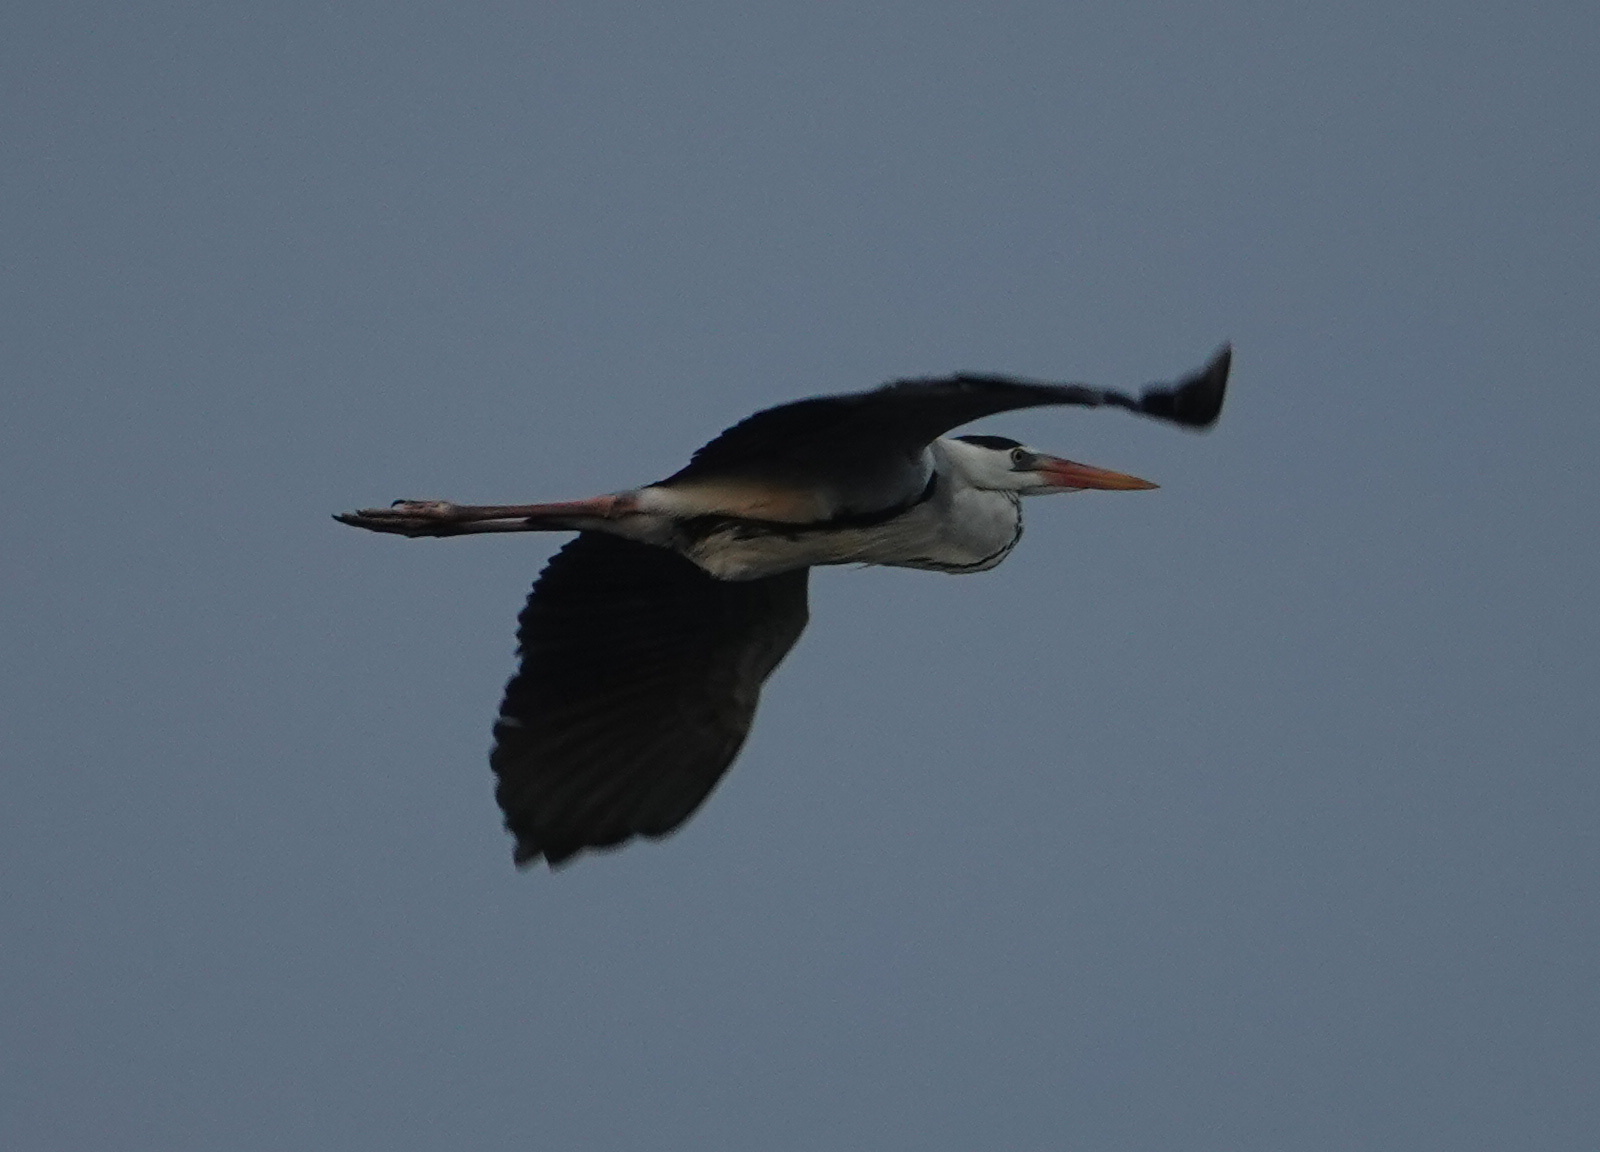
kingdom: Animalia
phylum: Chordata
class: Aves
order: Pelecaniformes
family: Ardeidae
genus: Ardea
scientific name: Ardea cinerea
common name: Grey heron
